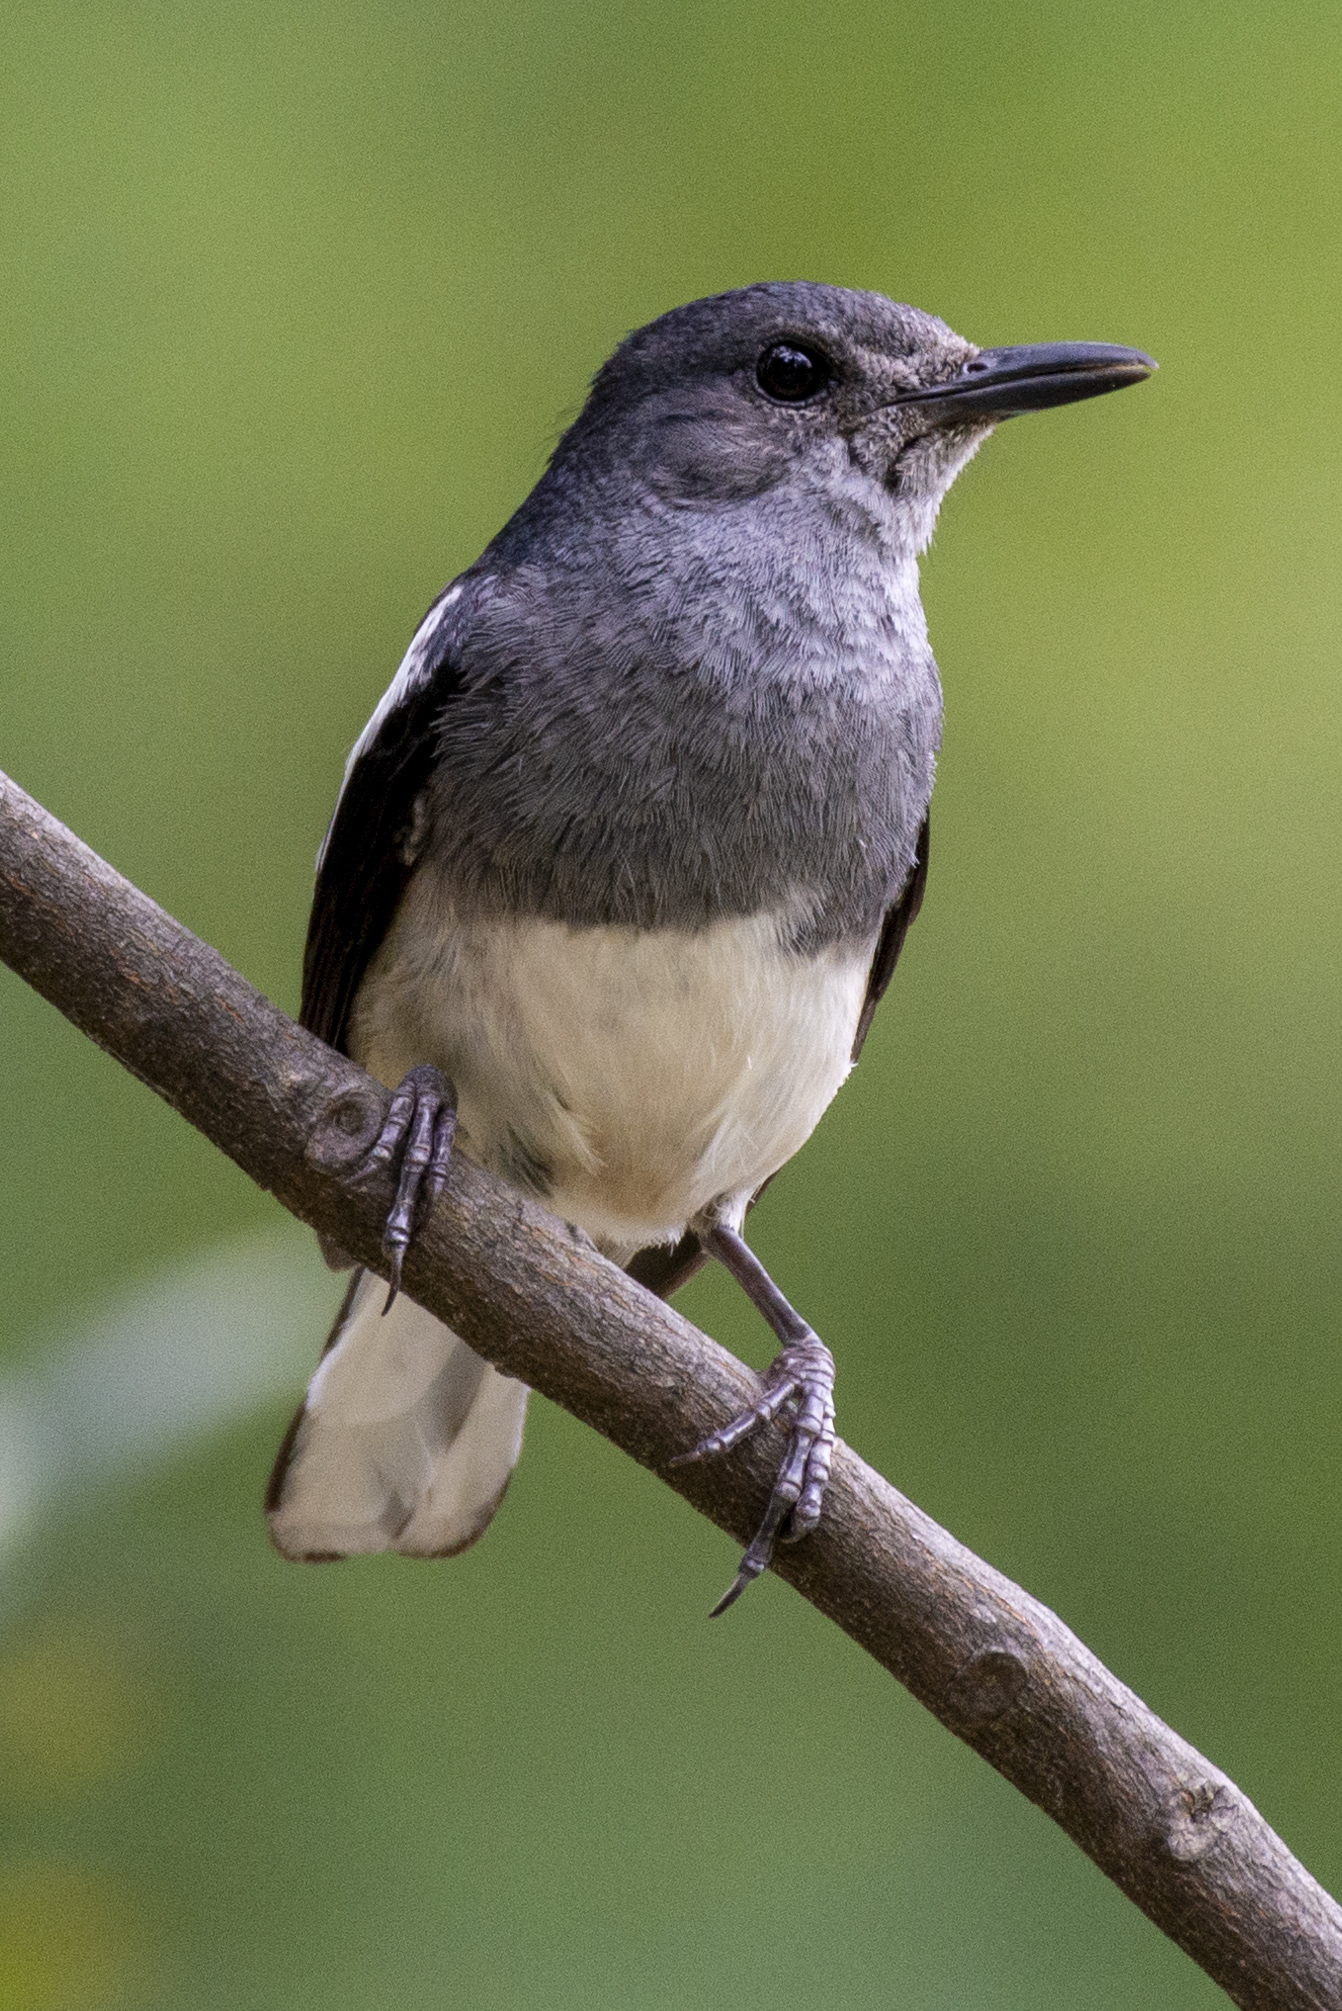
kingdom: Animalia
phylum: Chordata
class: Aves
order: Passeriformes
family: Muscicapidae
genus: Copsychus
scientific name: Copsychus saularis
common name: Oriental magpie-robin
